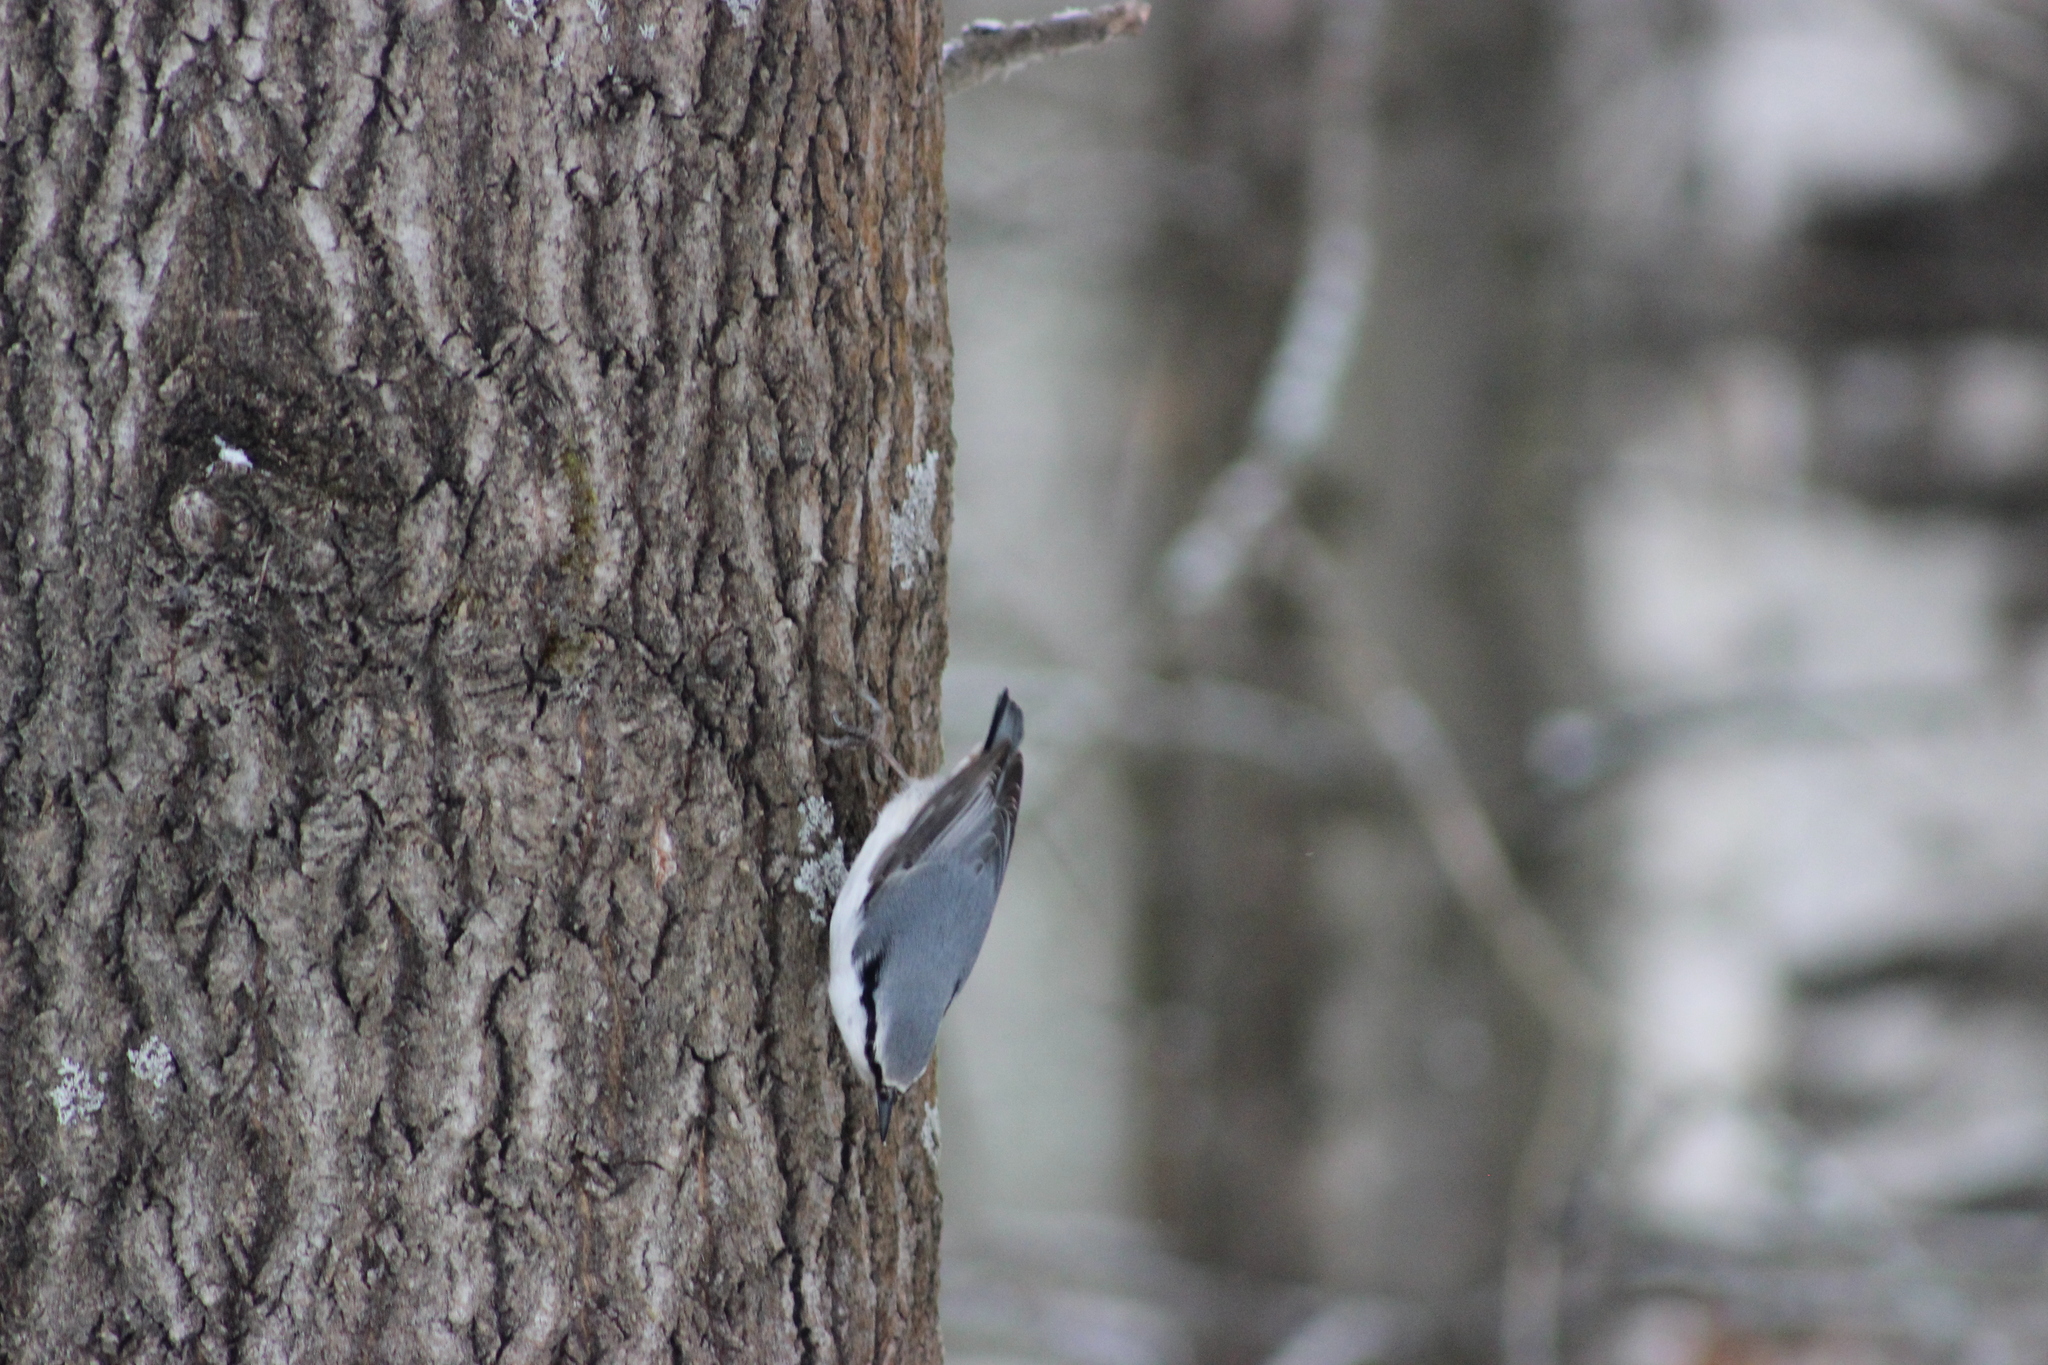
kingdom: Animalia
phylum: Chordata
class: Aves
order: Passeriformes
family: Sittidae
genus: Sitta
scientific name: Sitta europaea
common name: Eurasian nuthatch
